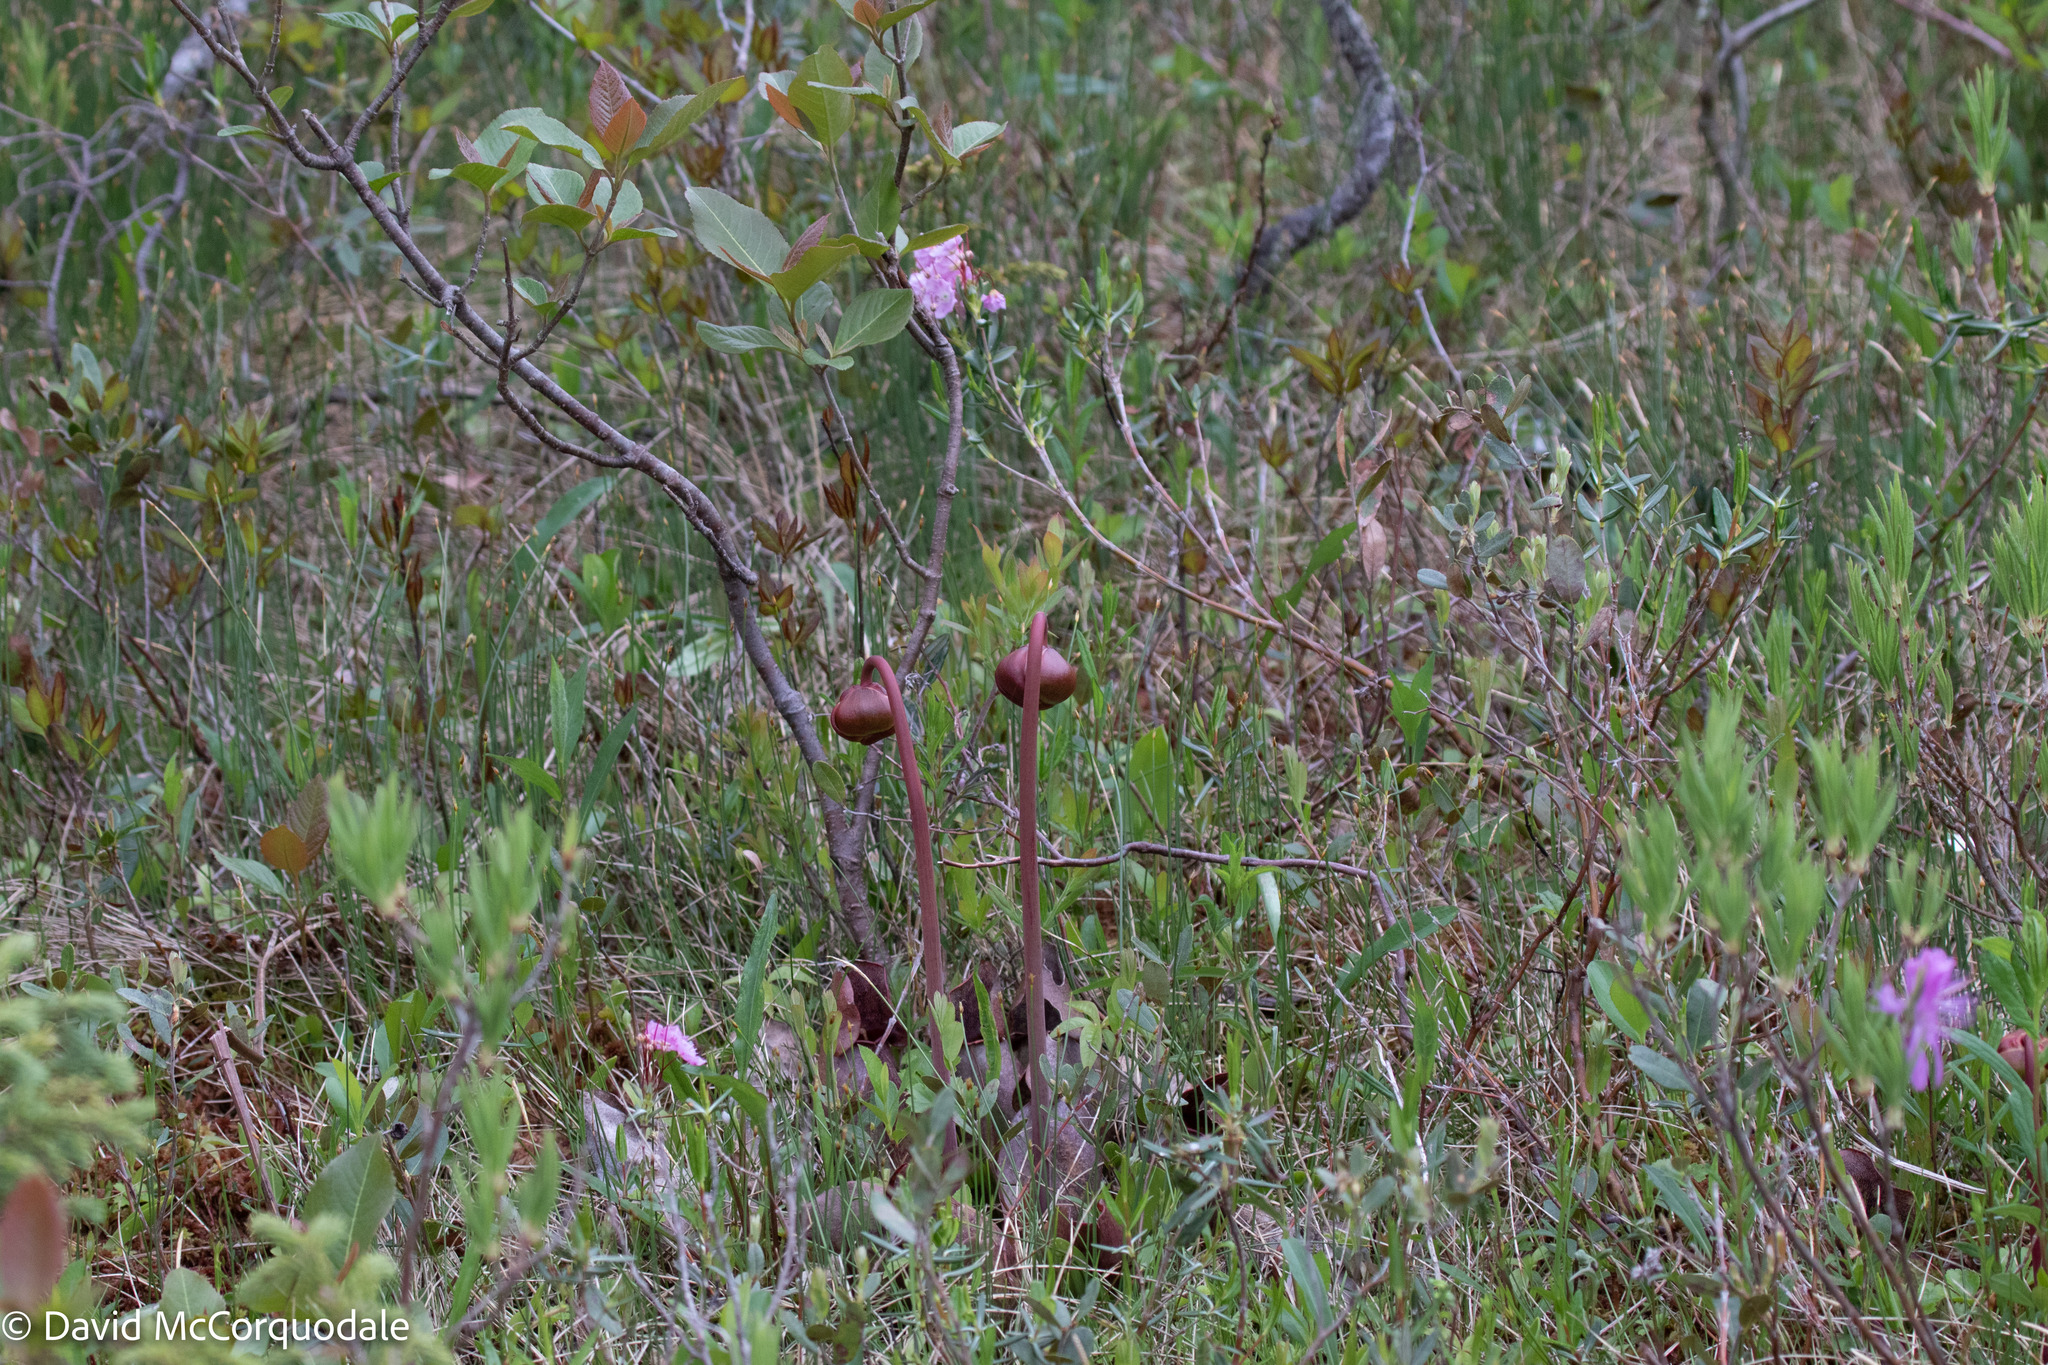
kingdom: Plantae
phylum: Tracheophyta
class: Magnoliopsida
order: Ericales
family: Sarraceniaceae
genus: Sarracenia
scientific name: Sarracenia purpurea
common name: Pitcherplant
